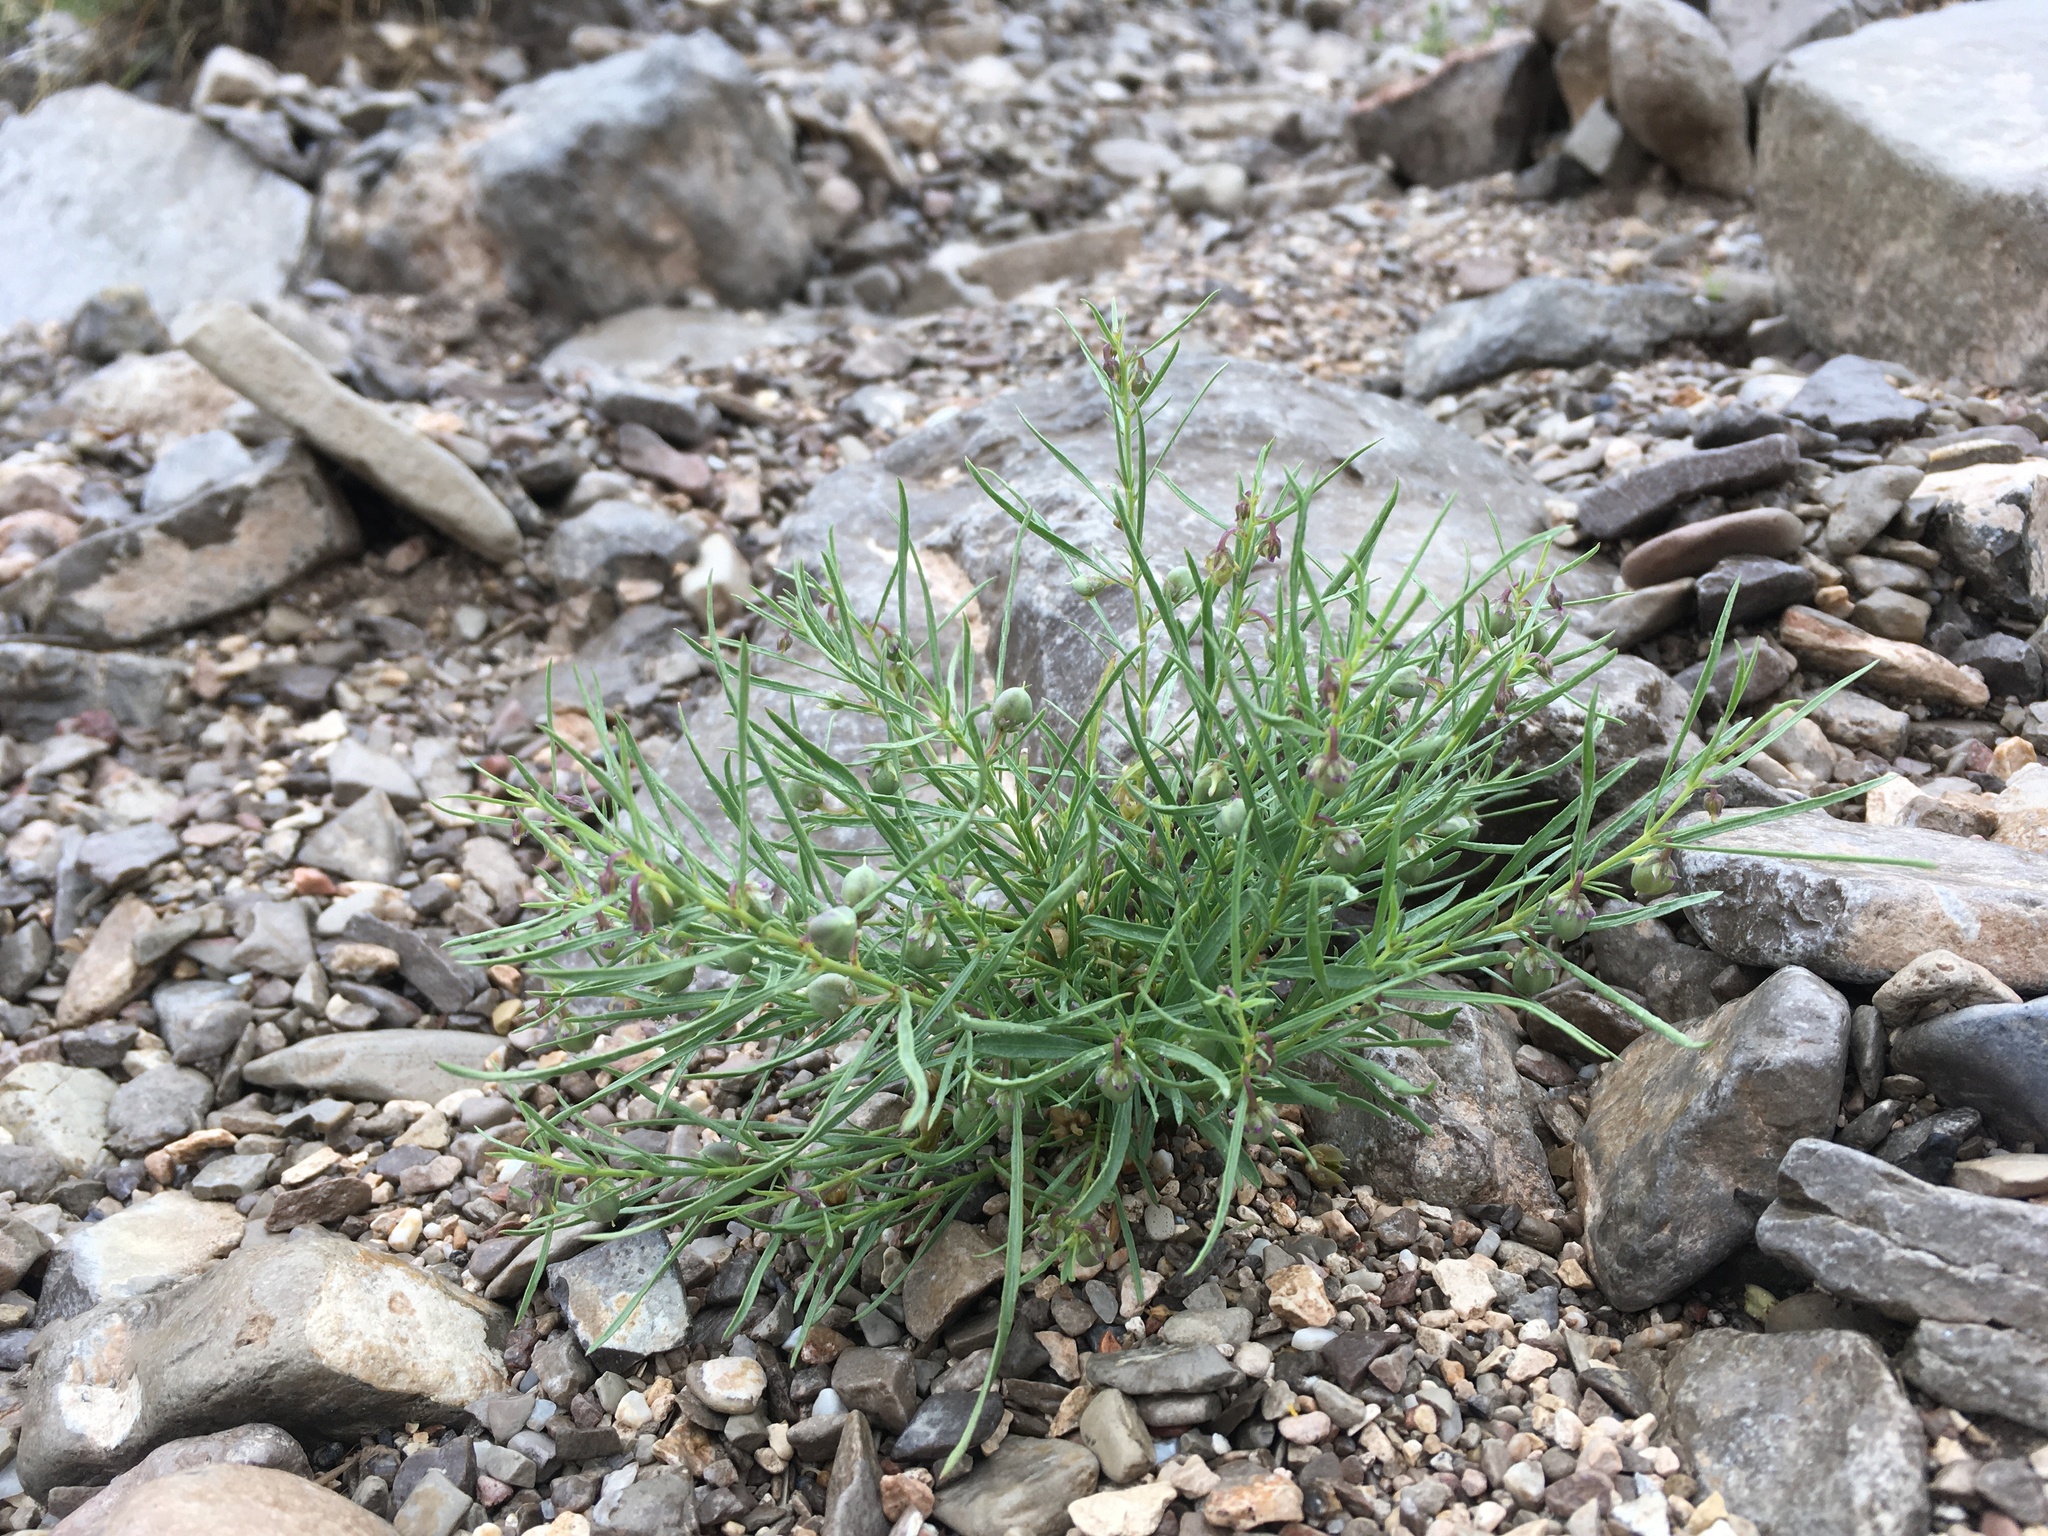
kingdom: Plantae
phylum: Tracheophyta
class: Magnoliopsida
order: Malpighiales
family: Violaceae
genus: Pombalia
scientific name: Pombalia verticillata
